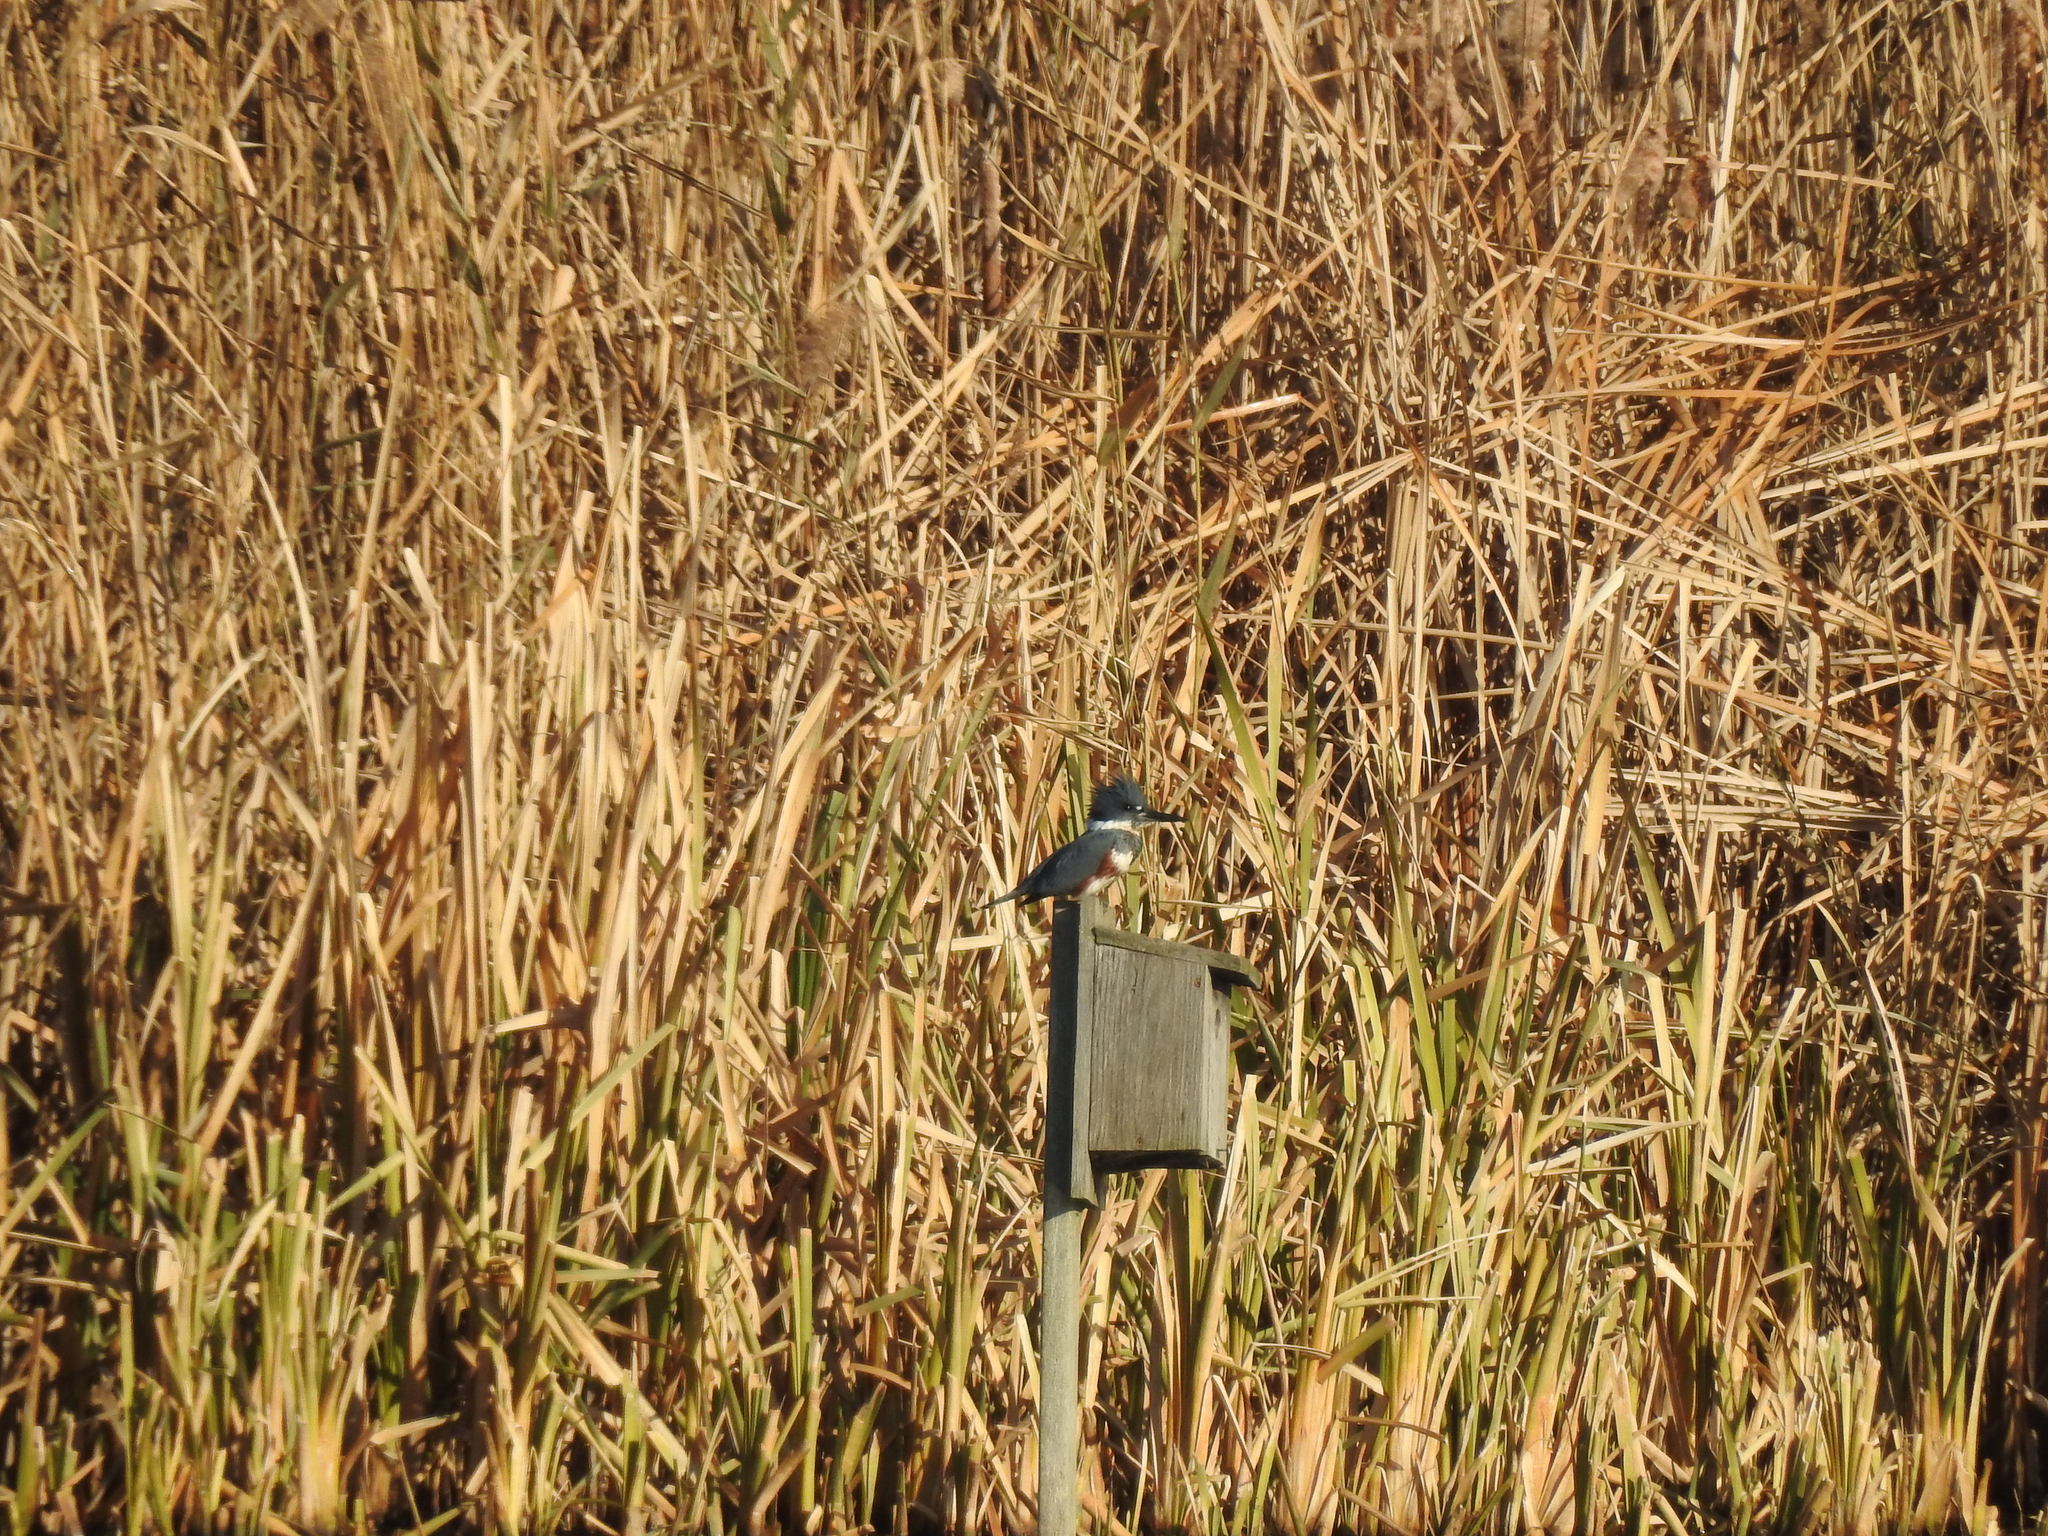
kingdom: Animalia
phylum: Chordata
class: Aves
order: Coraciiformes
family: Alcedinidae
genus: Megaceryle
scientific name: Megaceryle alcyon
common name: Belted kingfisher
